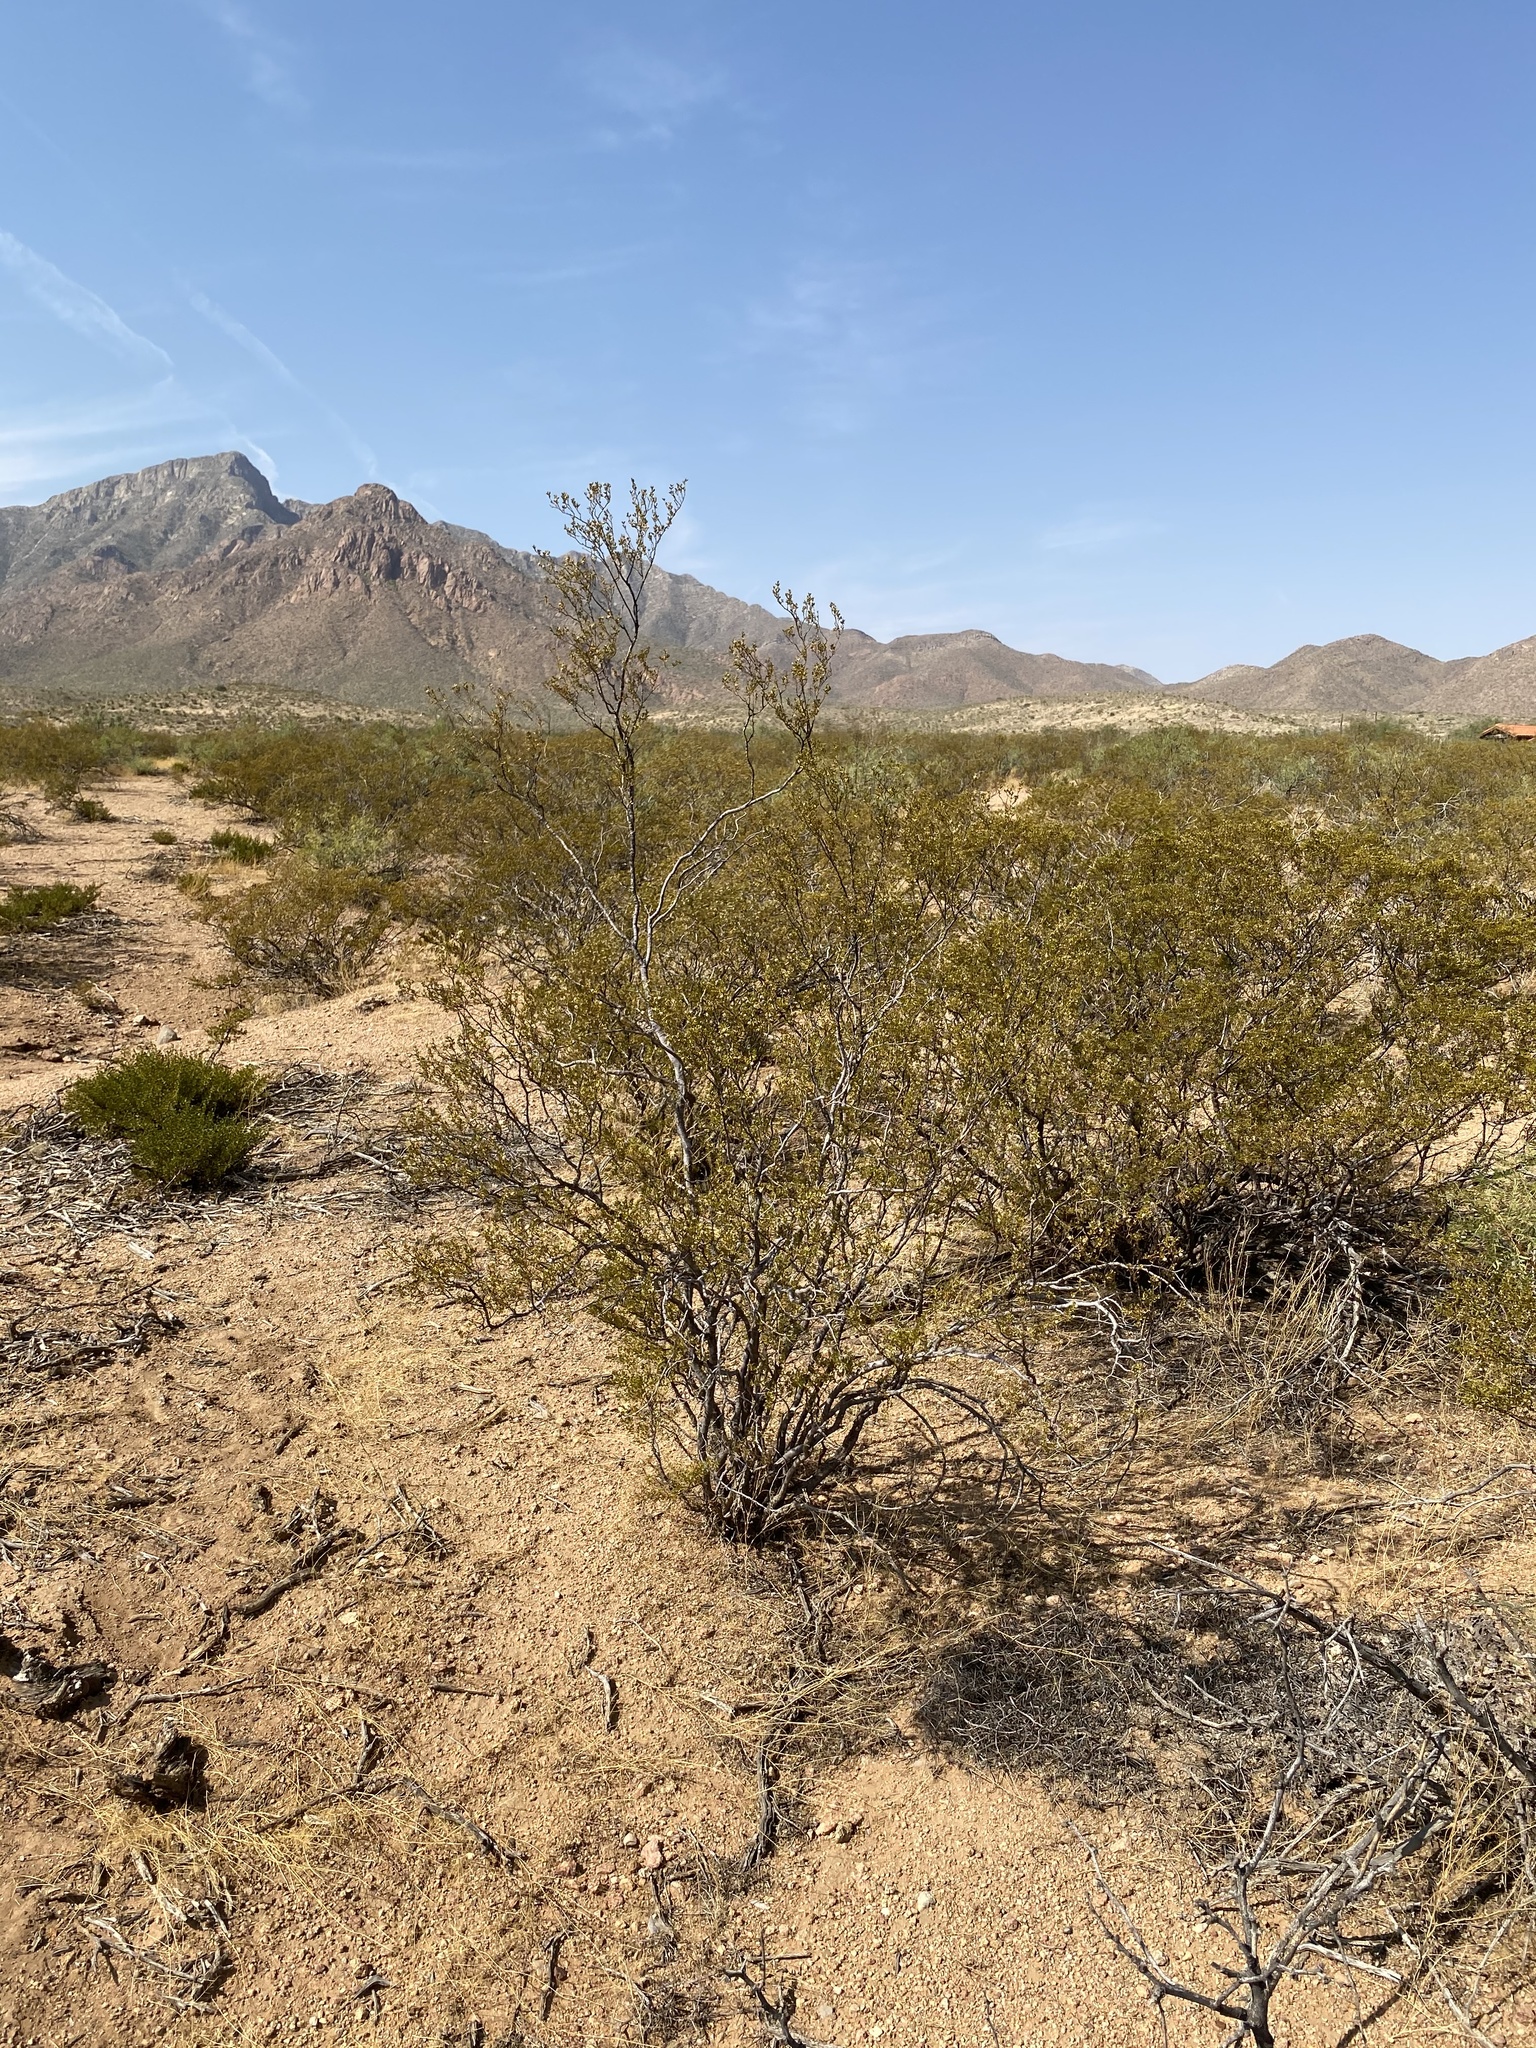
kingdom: Plantae
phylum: Tracheophyta
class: Magnoliopsida
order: Zygophyllales
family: Zygophyllaceae
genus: Larrea
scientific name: Larrea tridentata
